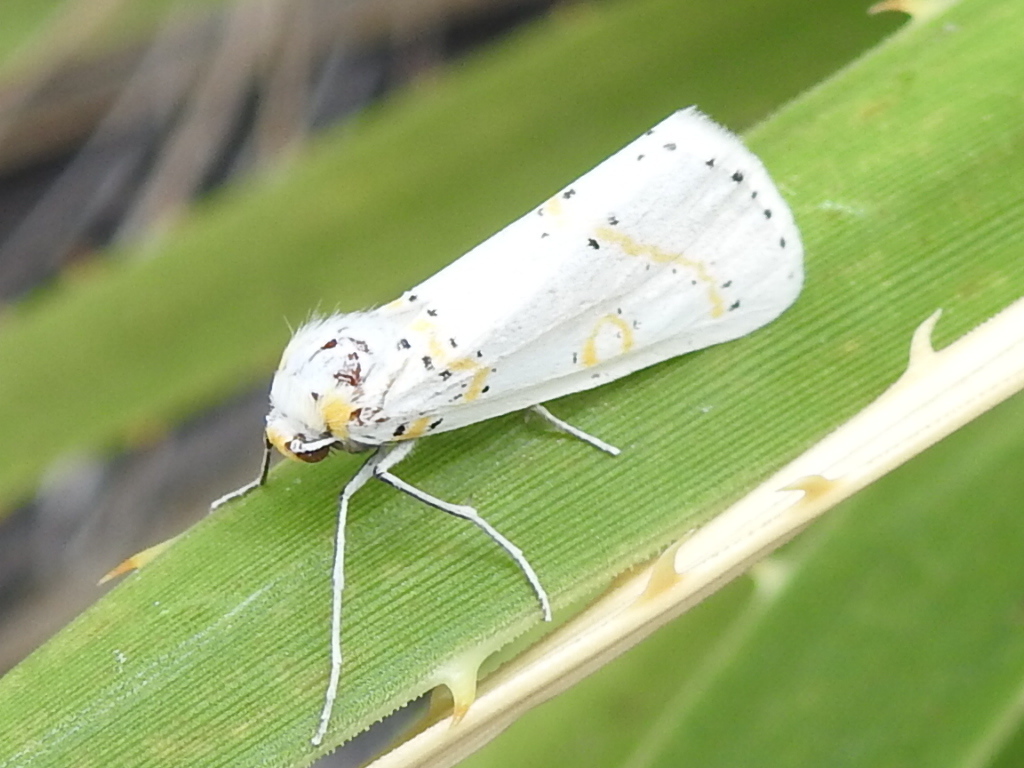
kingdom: Animalia
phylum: Arthropoda
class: Insecta
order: Lepidoptera
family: Geometridae
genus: Philtraea
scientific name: Philtraea paucimacula
